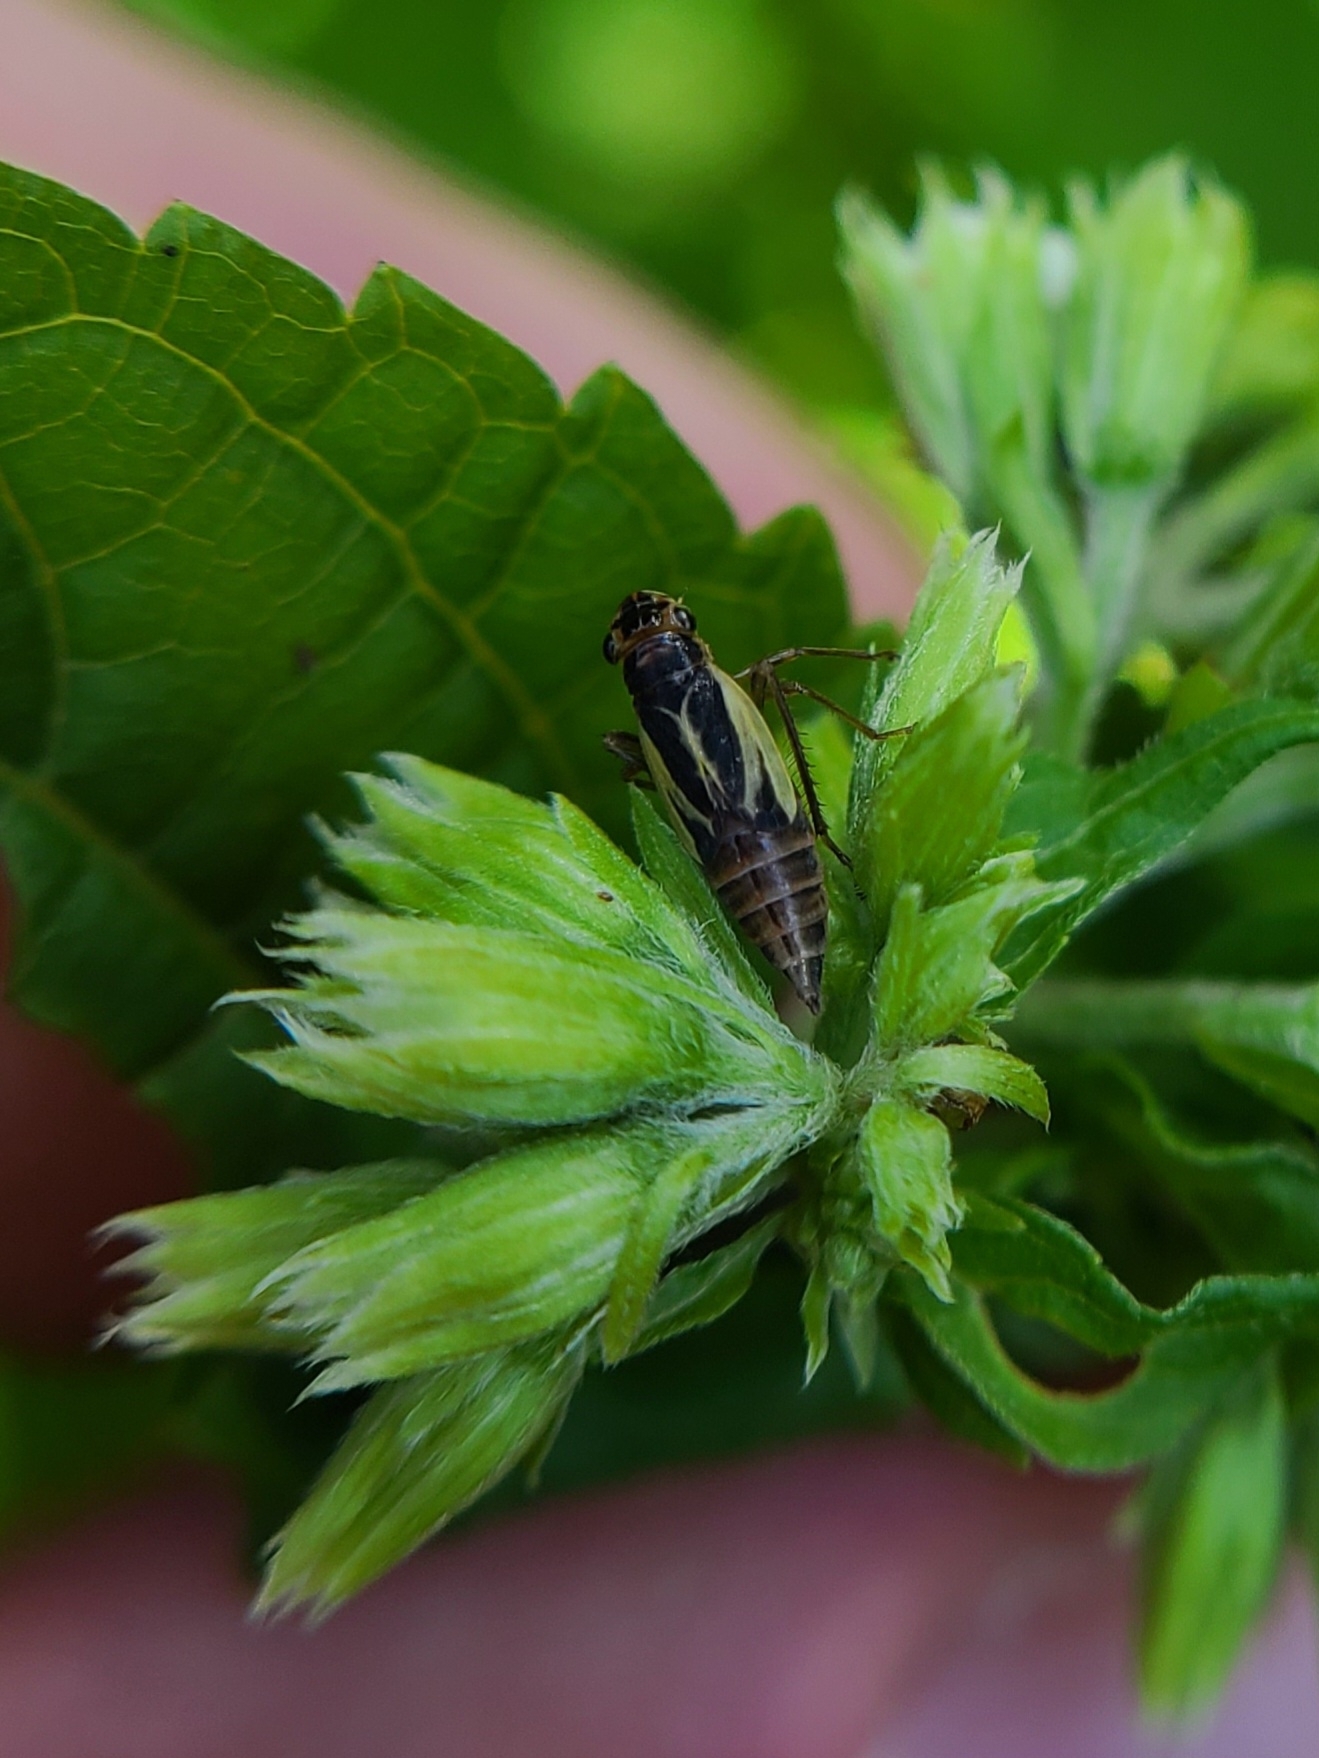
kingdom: Animalia
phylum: Arthropoda
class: Insecta
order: Hemiptera
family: Cicadellidae
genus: Evacanthus
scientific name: Evacanthus bellaustralis
